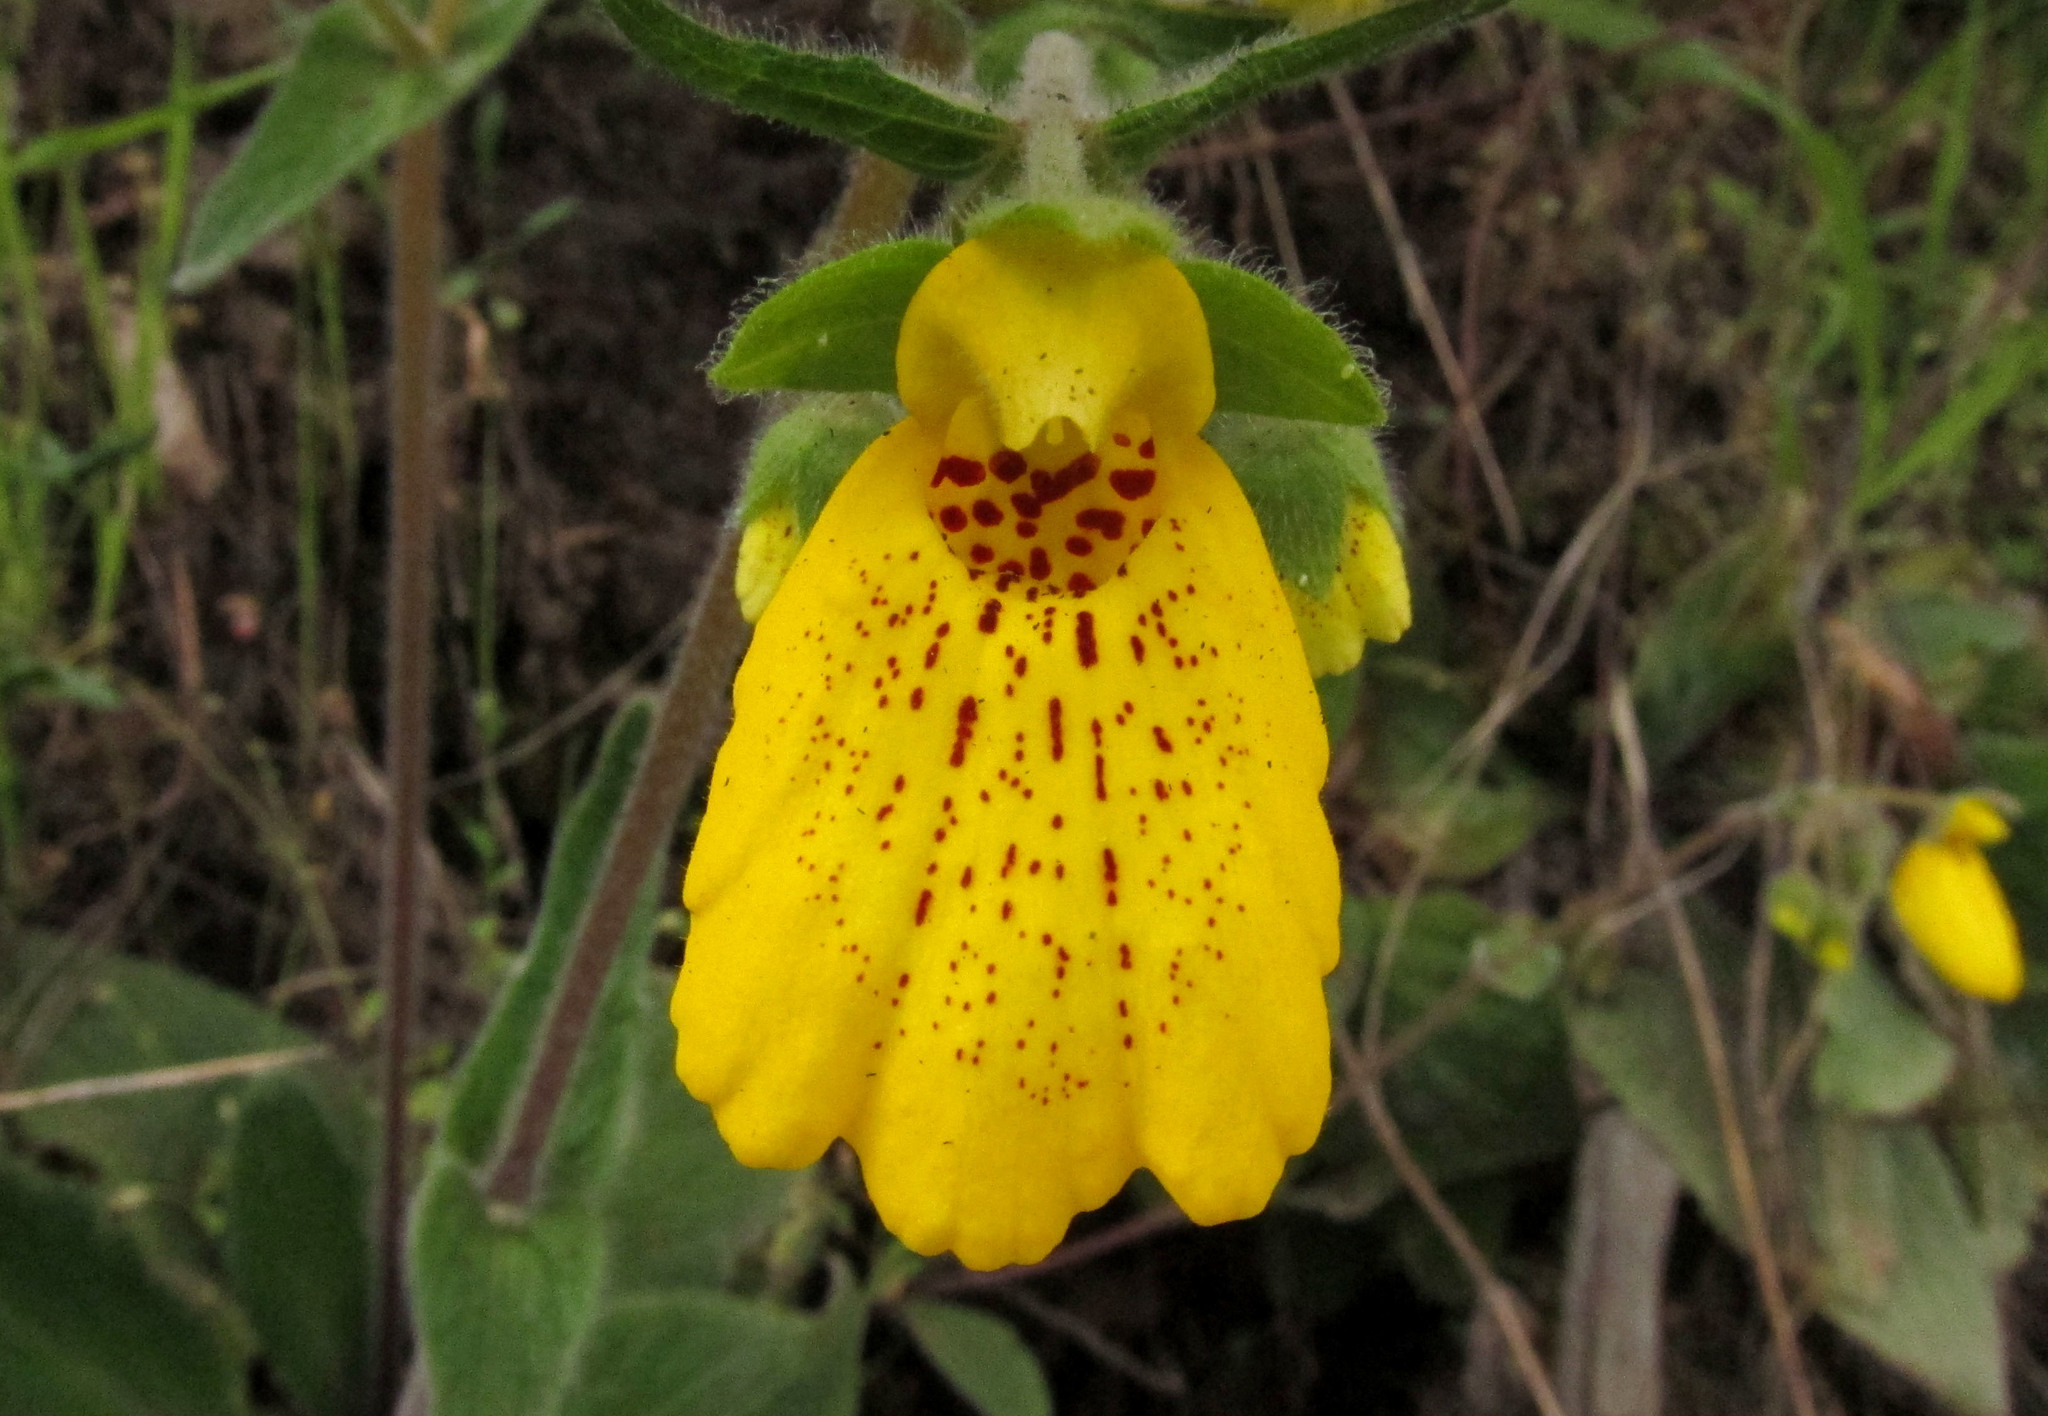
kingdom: Plantae
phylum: Tracheophyta
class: Magnoliopsida
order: Lamiales
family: Calceolariaceae
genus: Calceolaria
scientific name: Calceolaria crenatiflora
